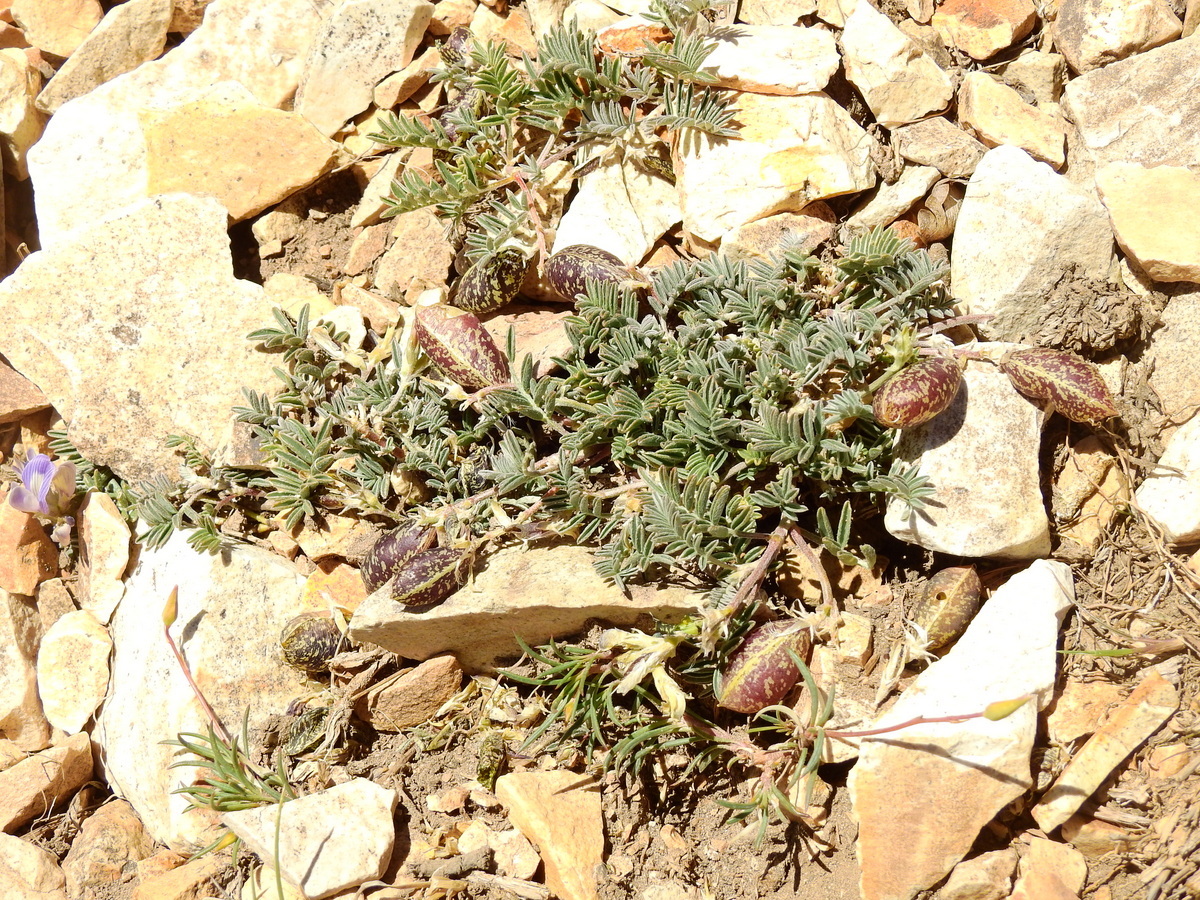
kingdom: Plantae
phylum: Tracheophyta
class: Magnoliopsida
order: Fabales
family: Fabaceae
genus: Astragalus
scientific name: Astragalus palenae
